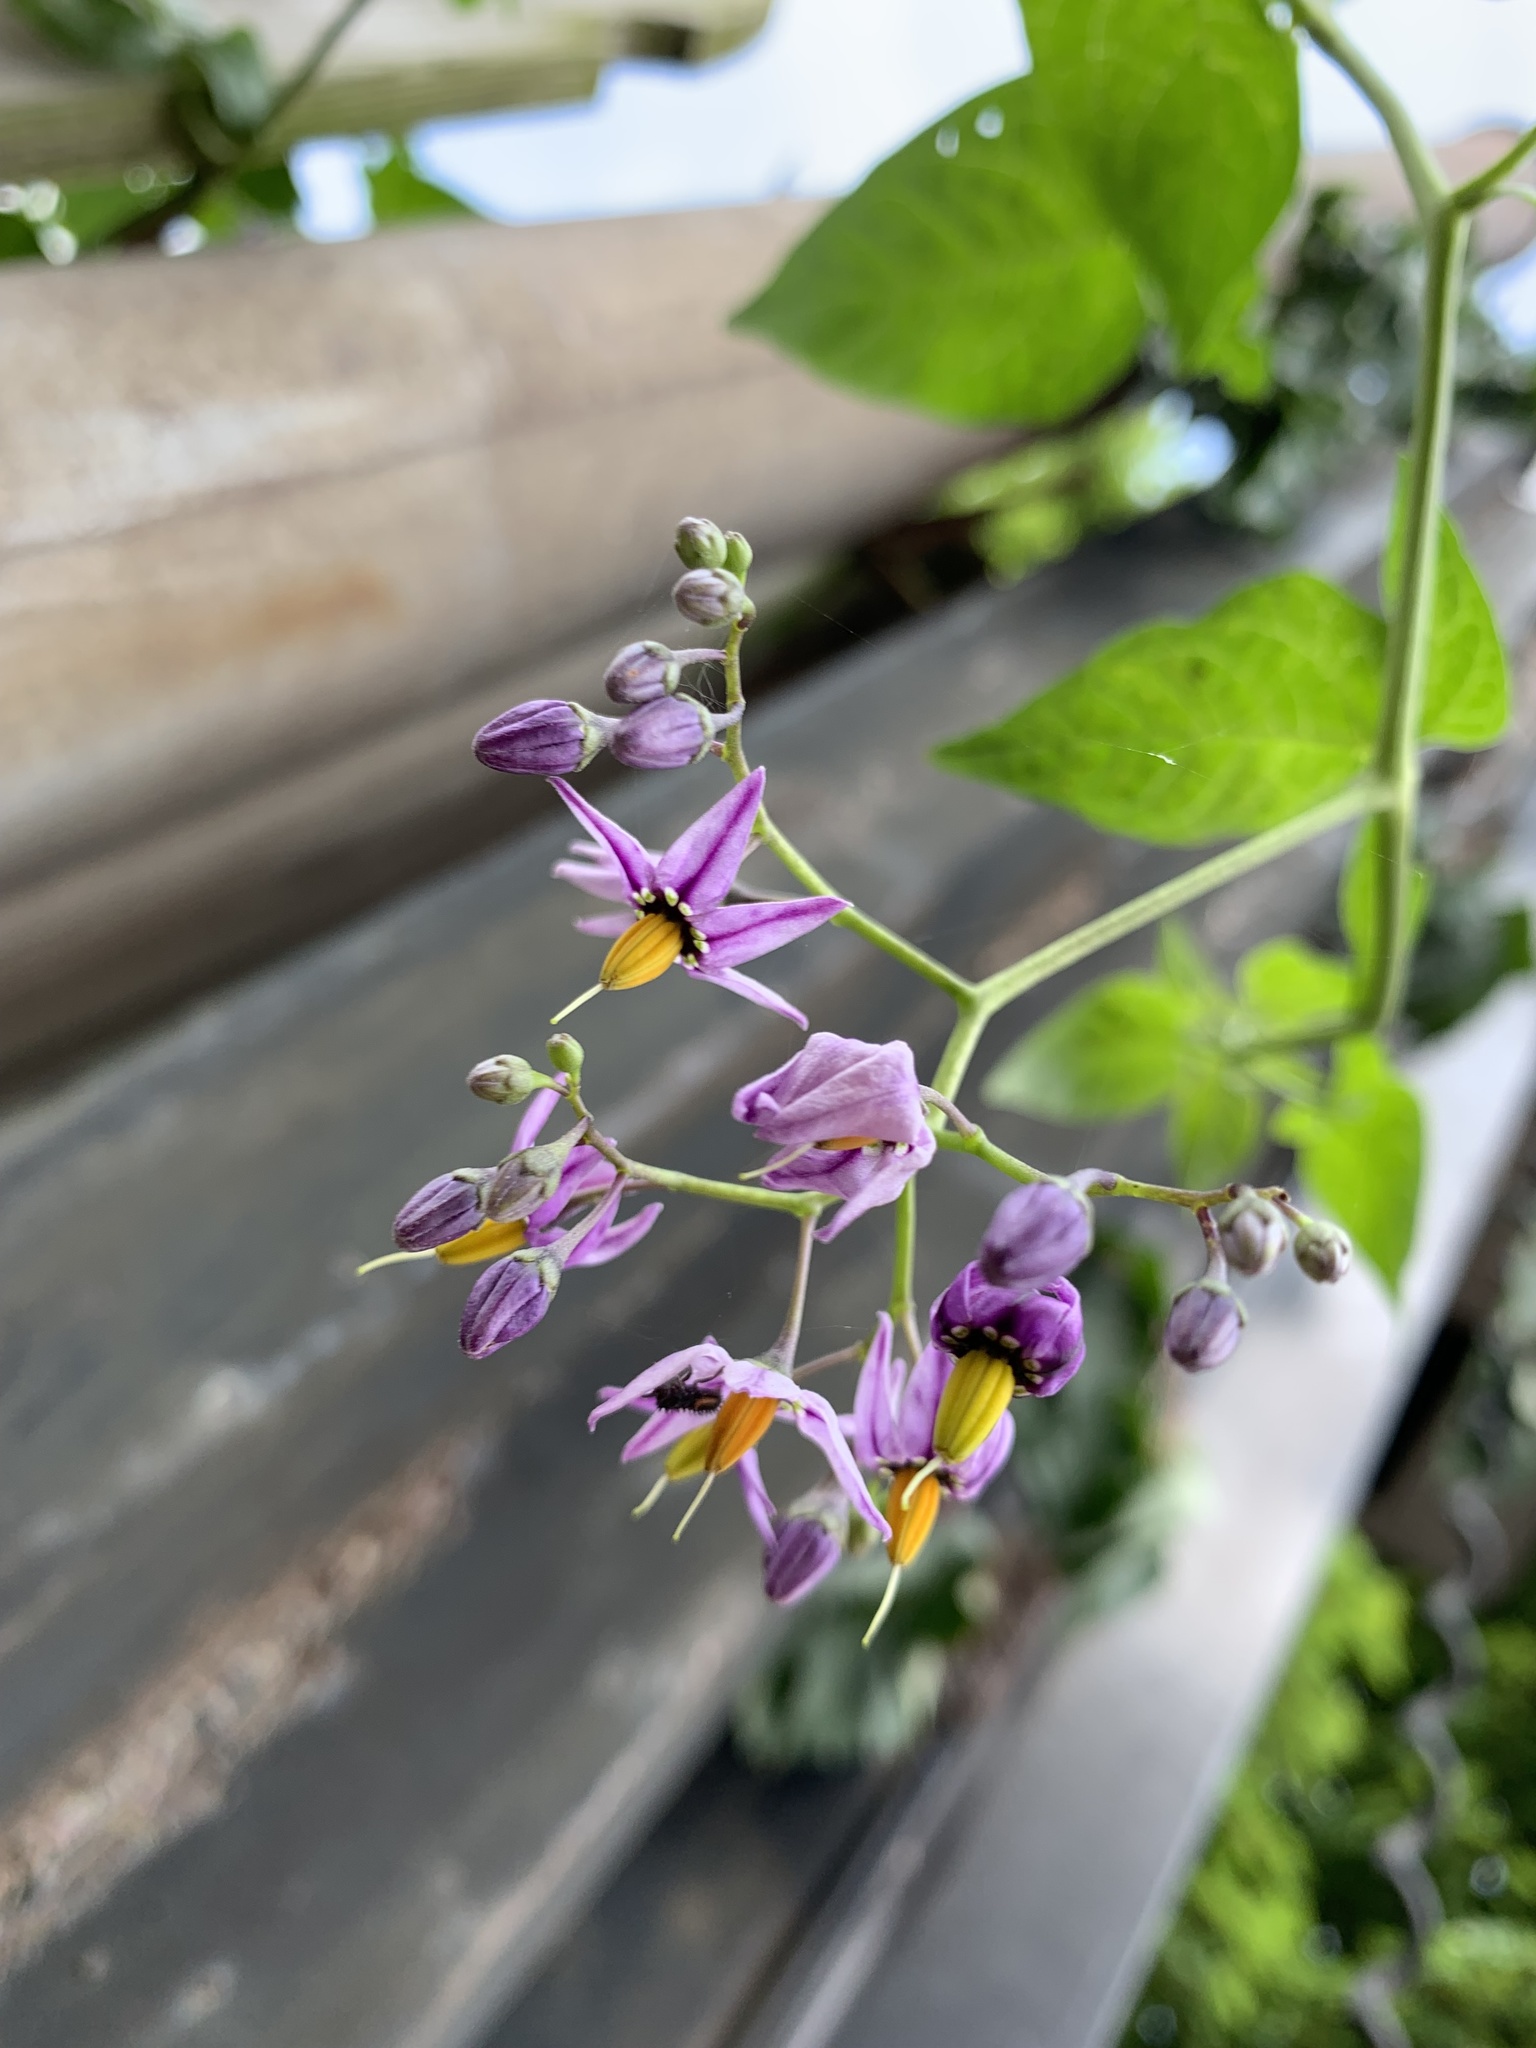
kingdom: Plantae
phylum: Tracheophyta
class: Magnoliopsida
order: Solanales
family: Solanaceae
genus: Solanum
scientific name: Solanum dulcamara
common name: Climbing nightshade
